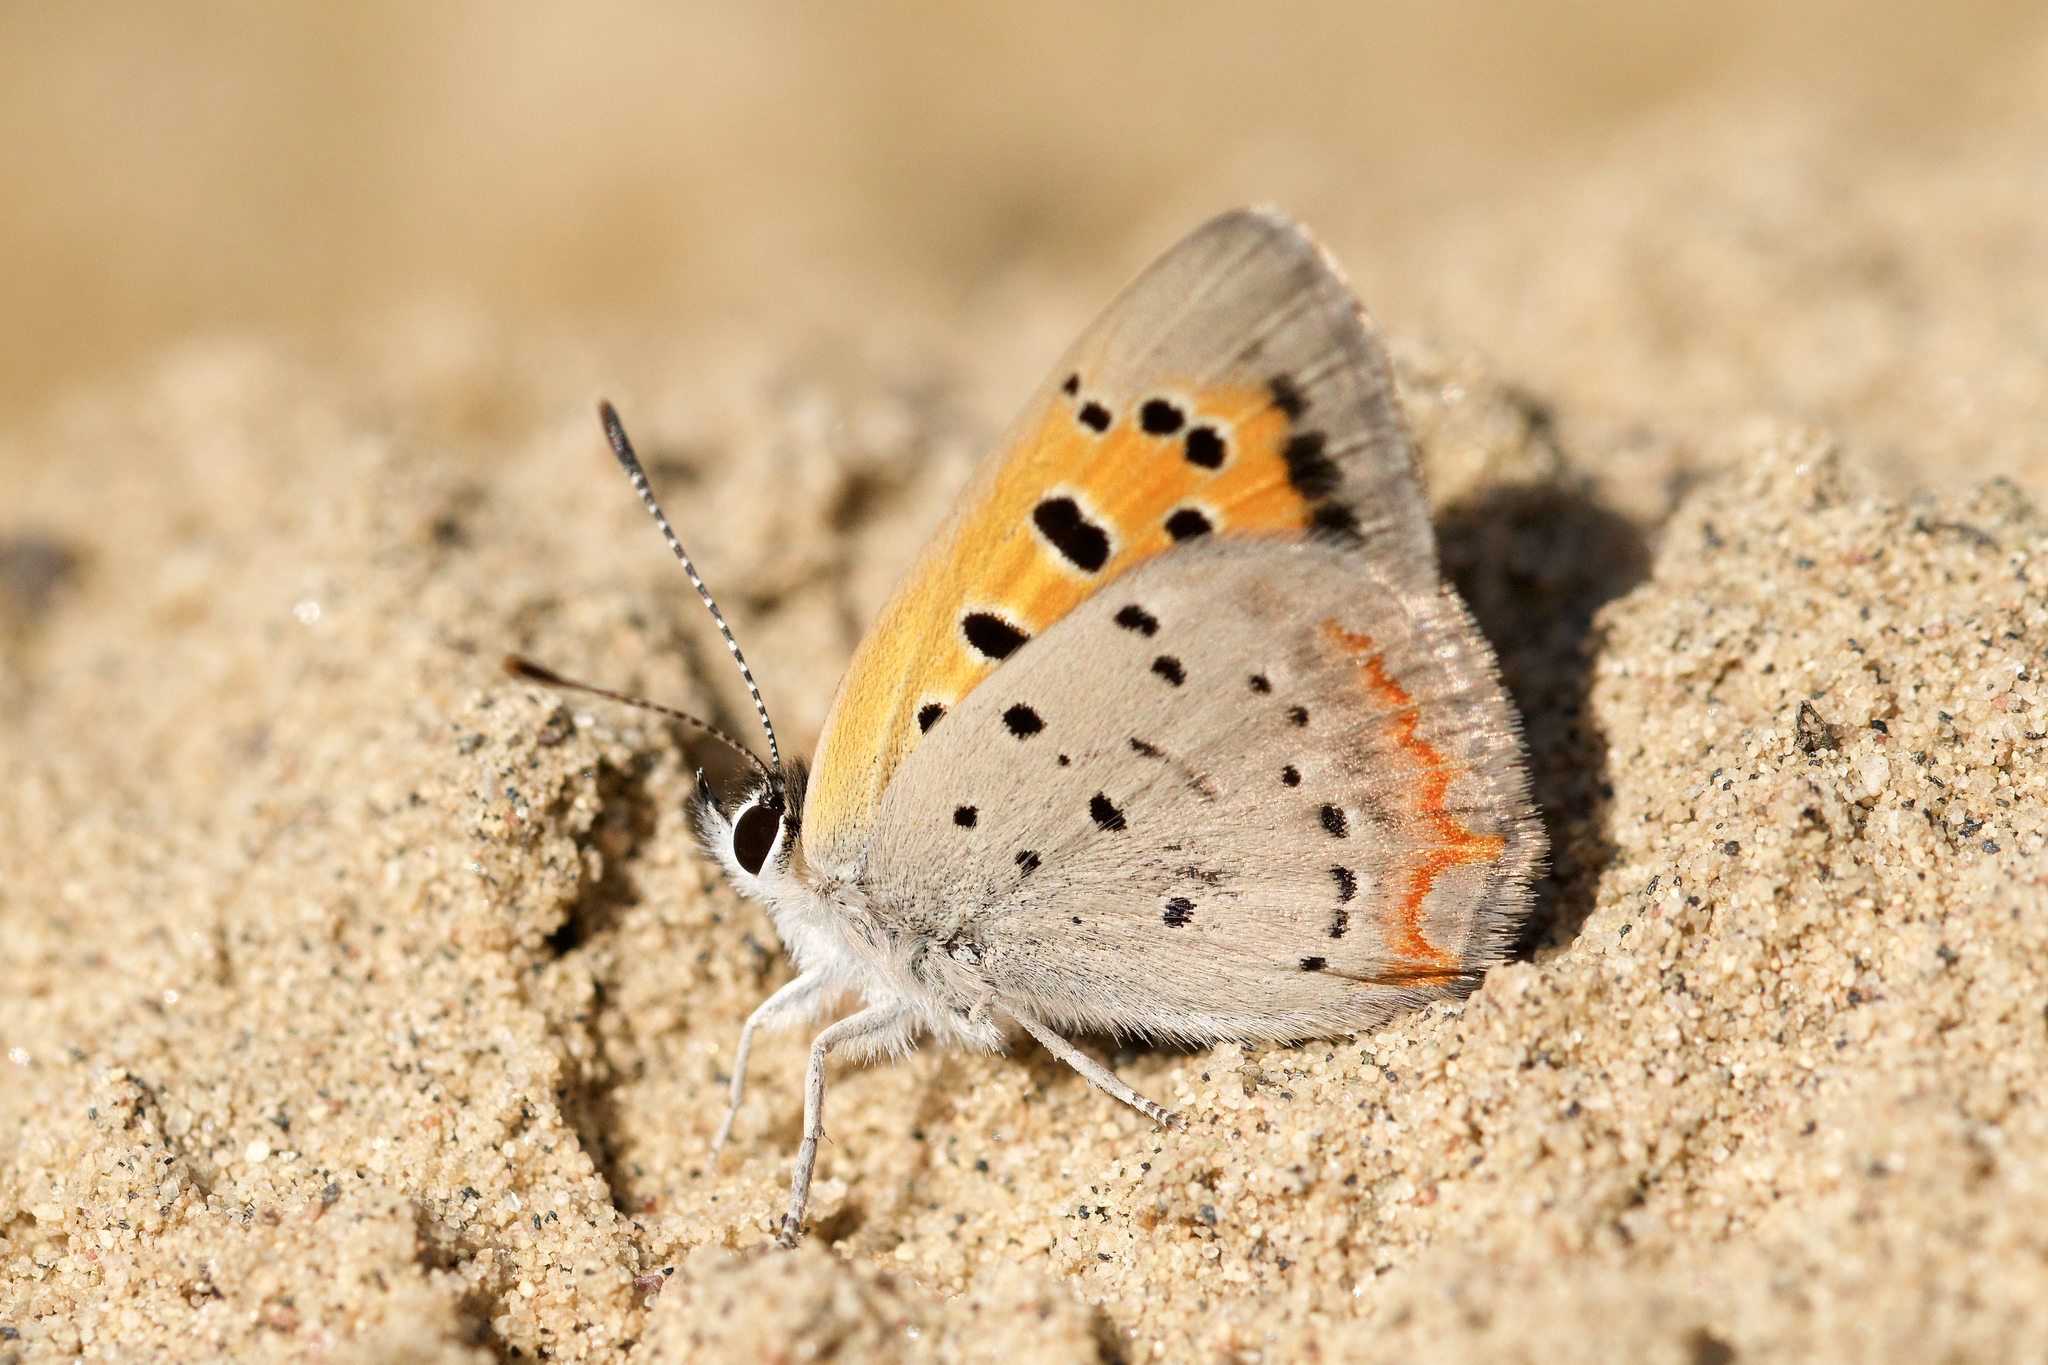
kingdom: Animalia
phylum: Arthropoda
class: Insecta
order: Lepidoptera
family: Lycaenidae
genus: Lycaena
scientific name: Lycaena hypophlaeas
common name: American copper
